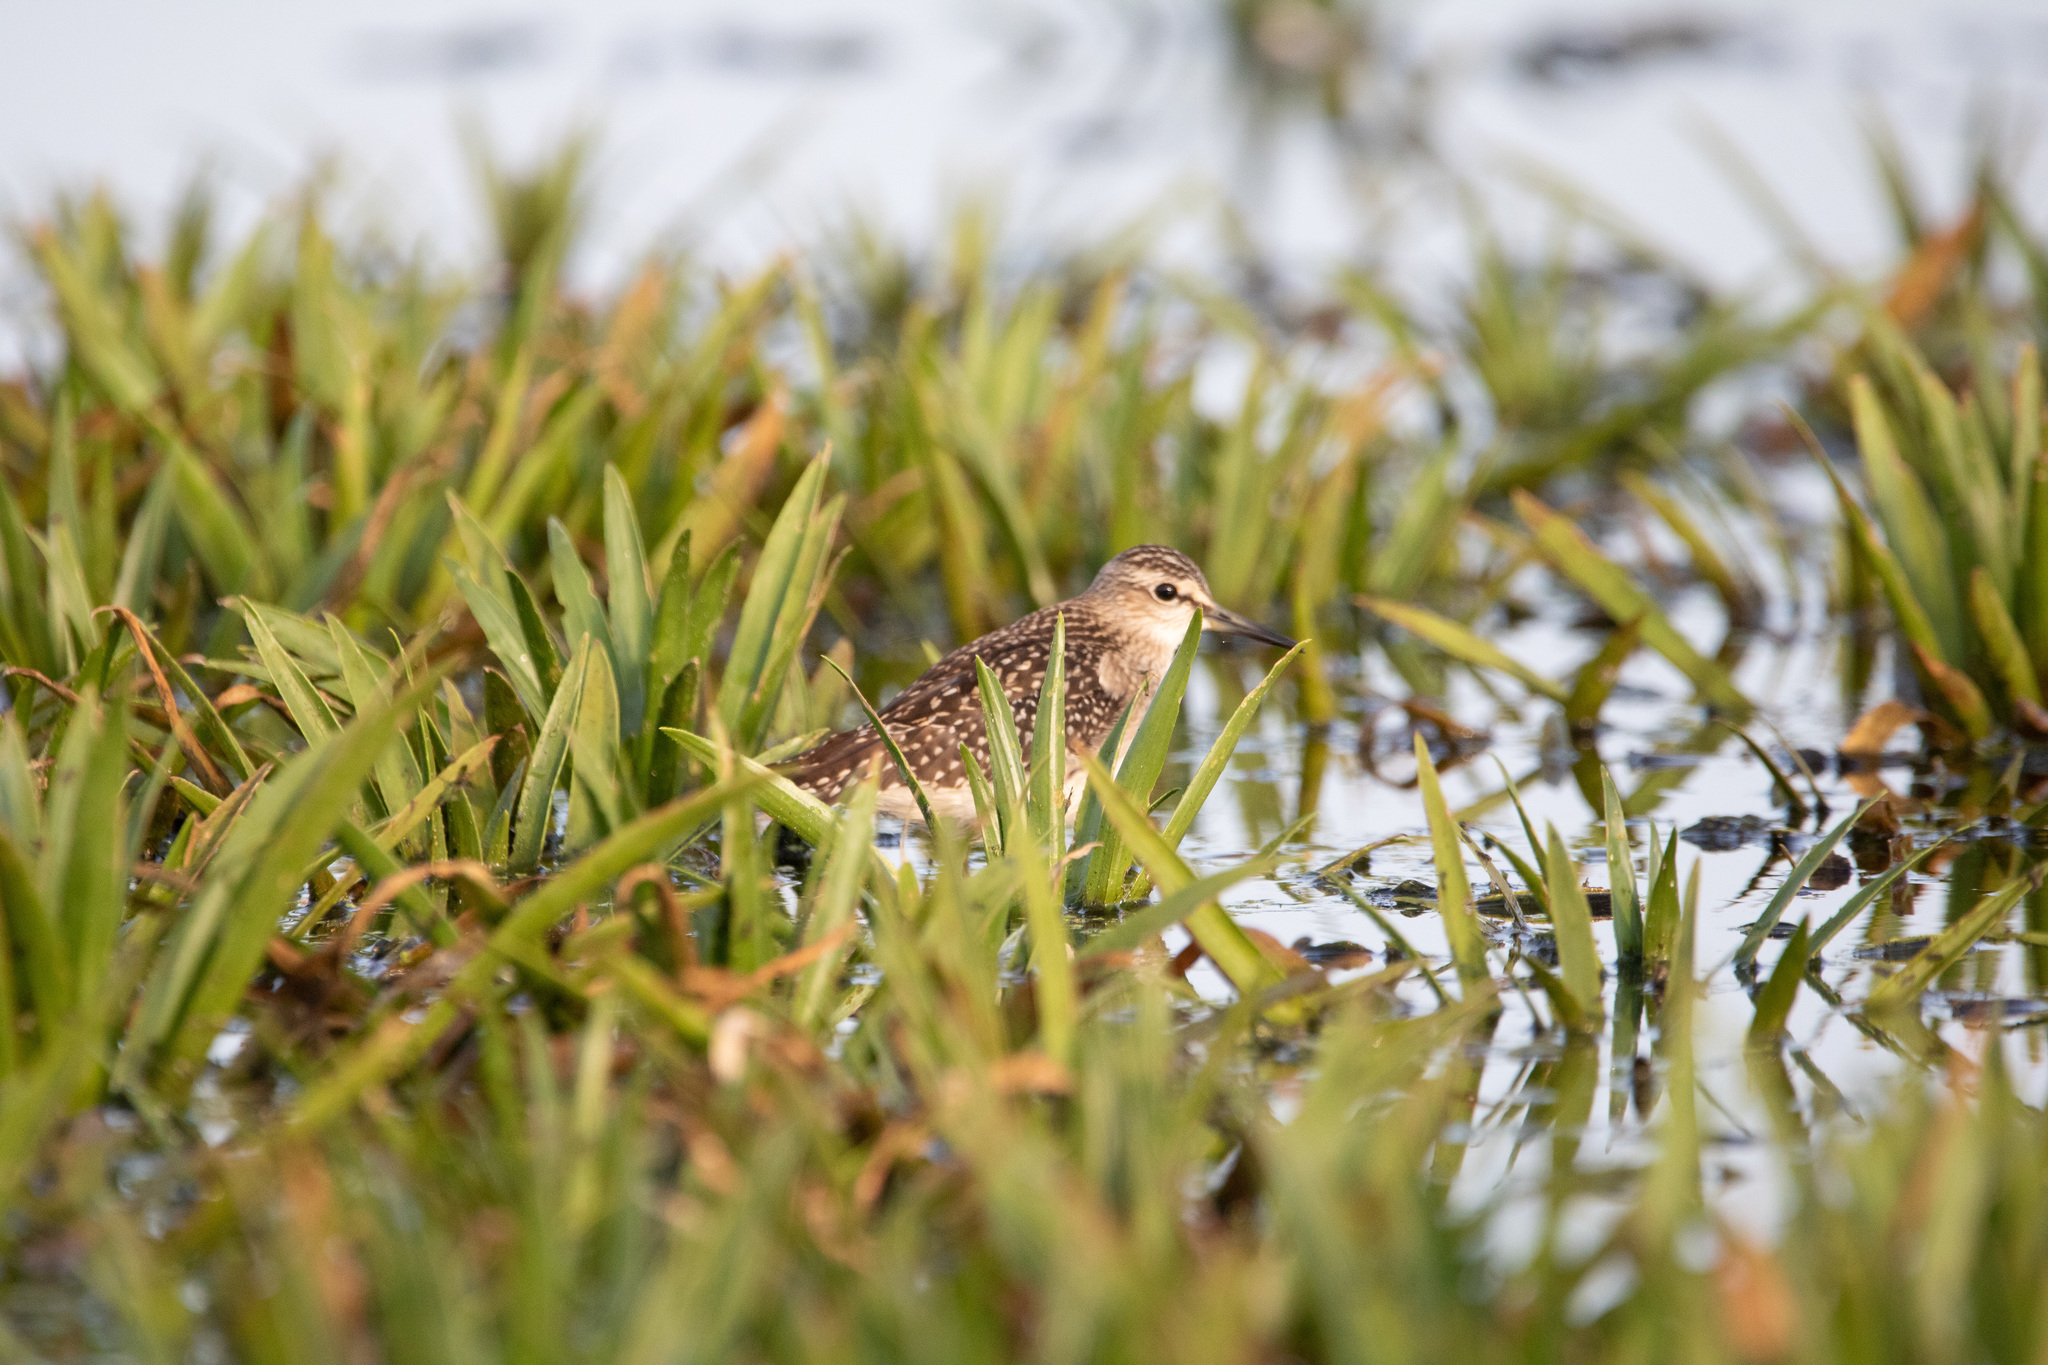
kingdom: Animalia
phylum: Chordata
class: Aves
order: Charadriiformes
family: Scolopacidae
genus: Tringa
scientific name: Tringa glareola
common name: Wood sandpiper
